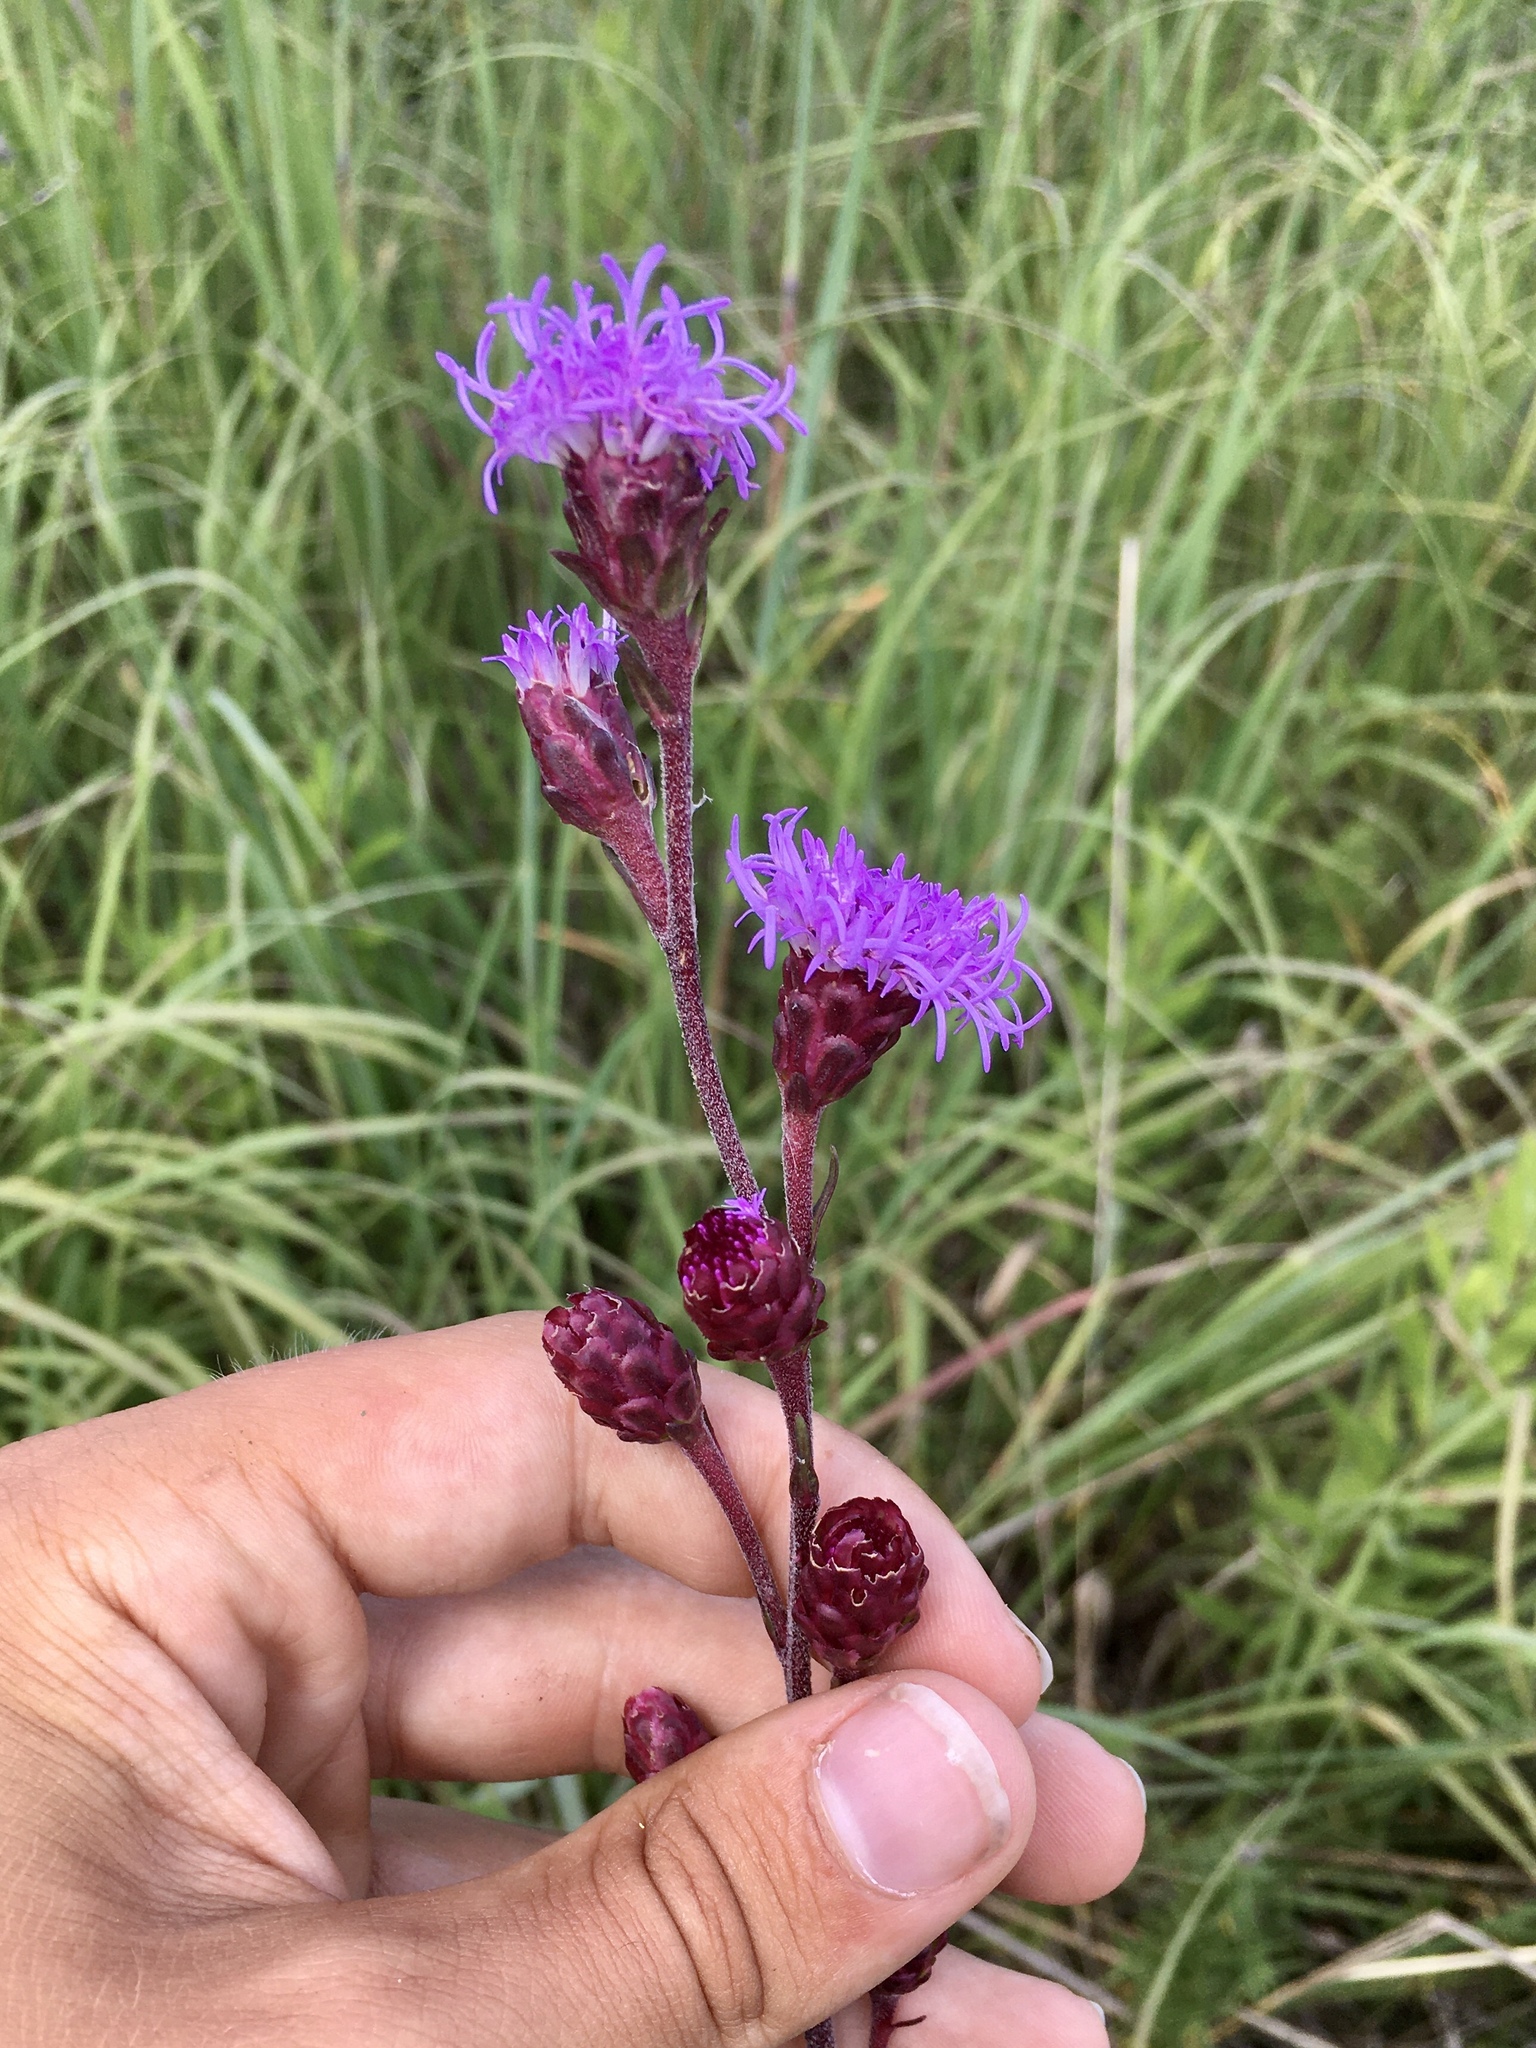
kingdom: Plantae
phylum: Tracheophyta
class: Magnoliopsida
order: Asterales
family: Asteraceae
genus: Liatris
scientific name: Liatris ligulistylis
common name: Northern plains gayfeather
